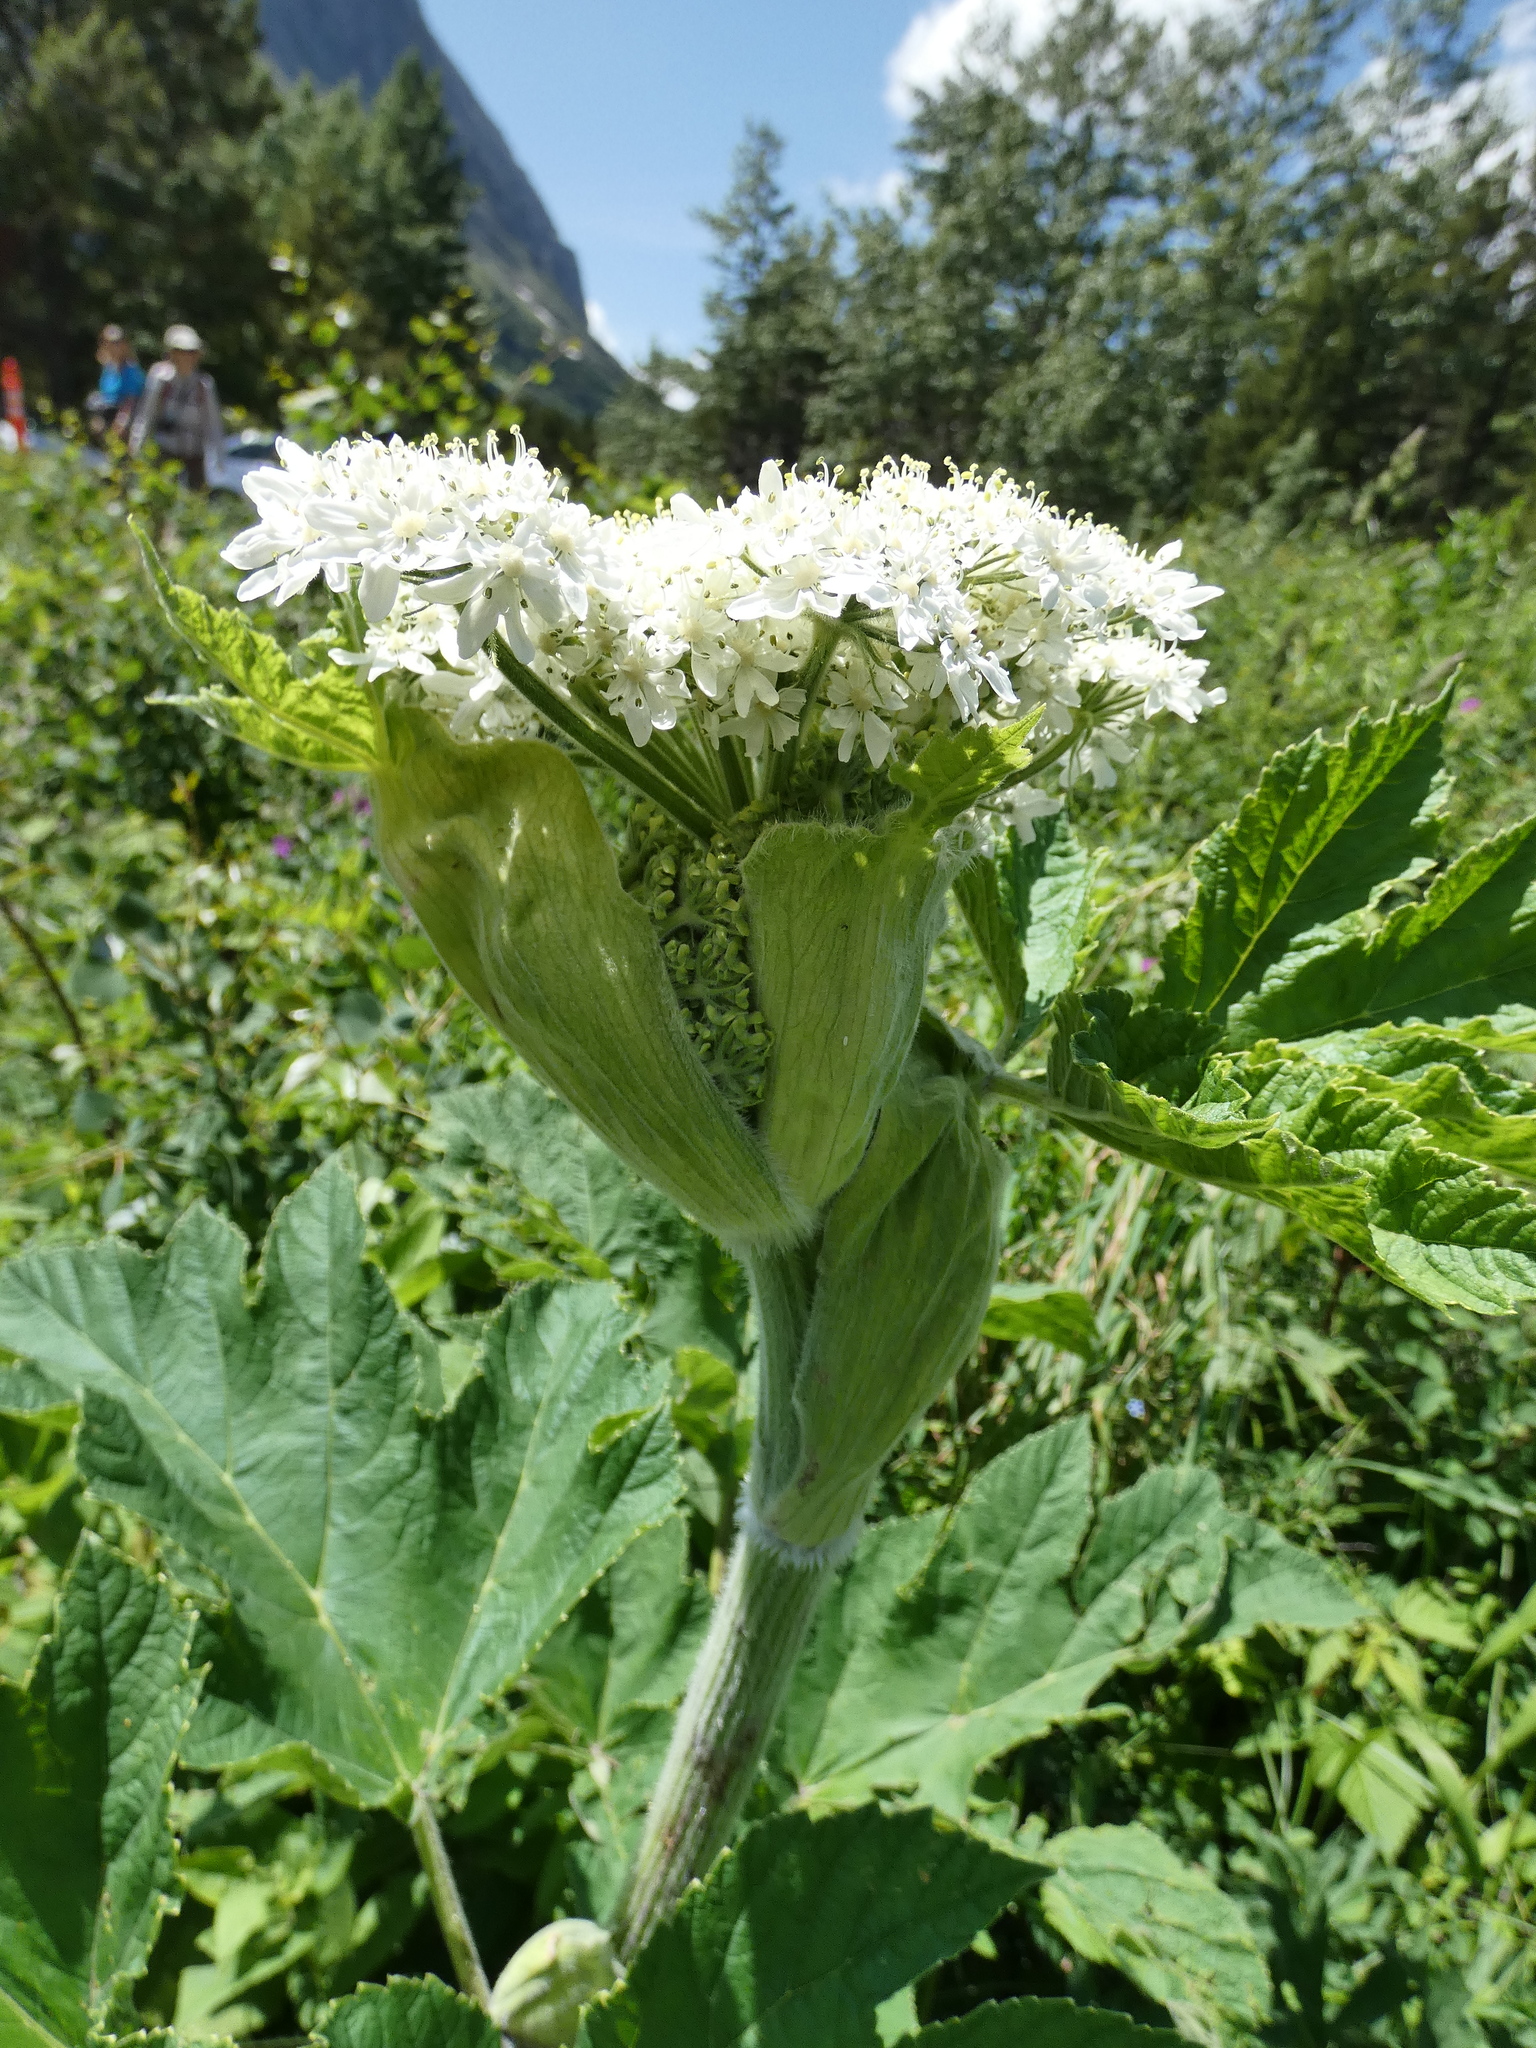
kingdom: Plantae
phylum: Tracheophyta
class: Magnoliopsida
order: Apiales
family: Apiaceae
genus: Heracleum
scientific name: Heracleum maximum
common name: American cow parsnip
